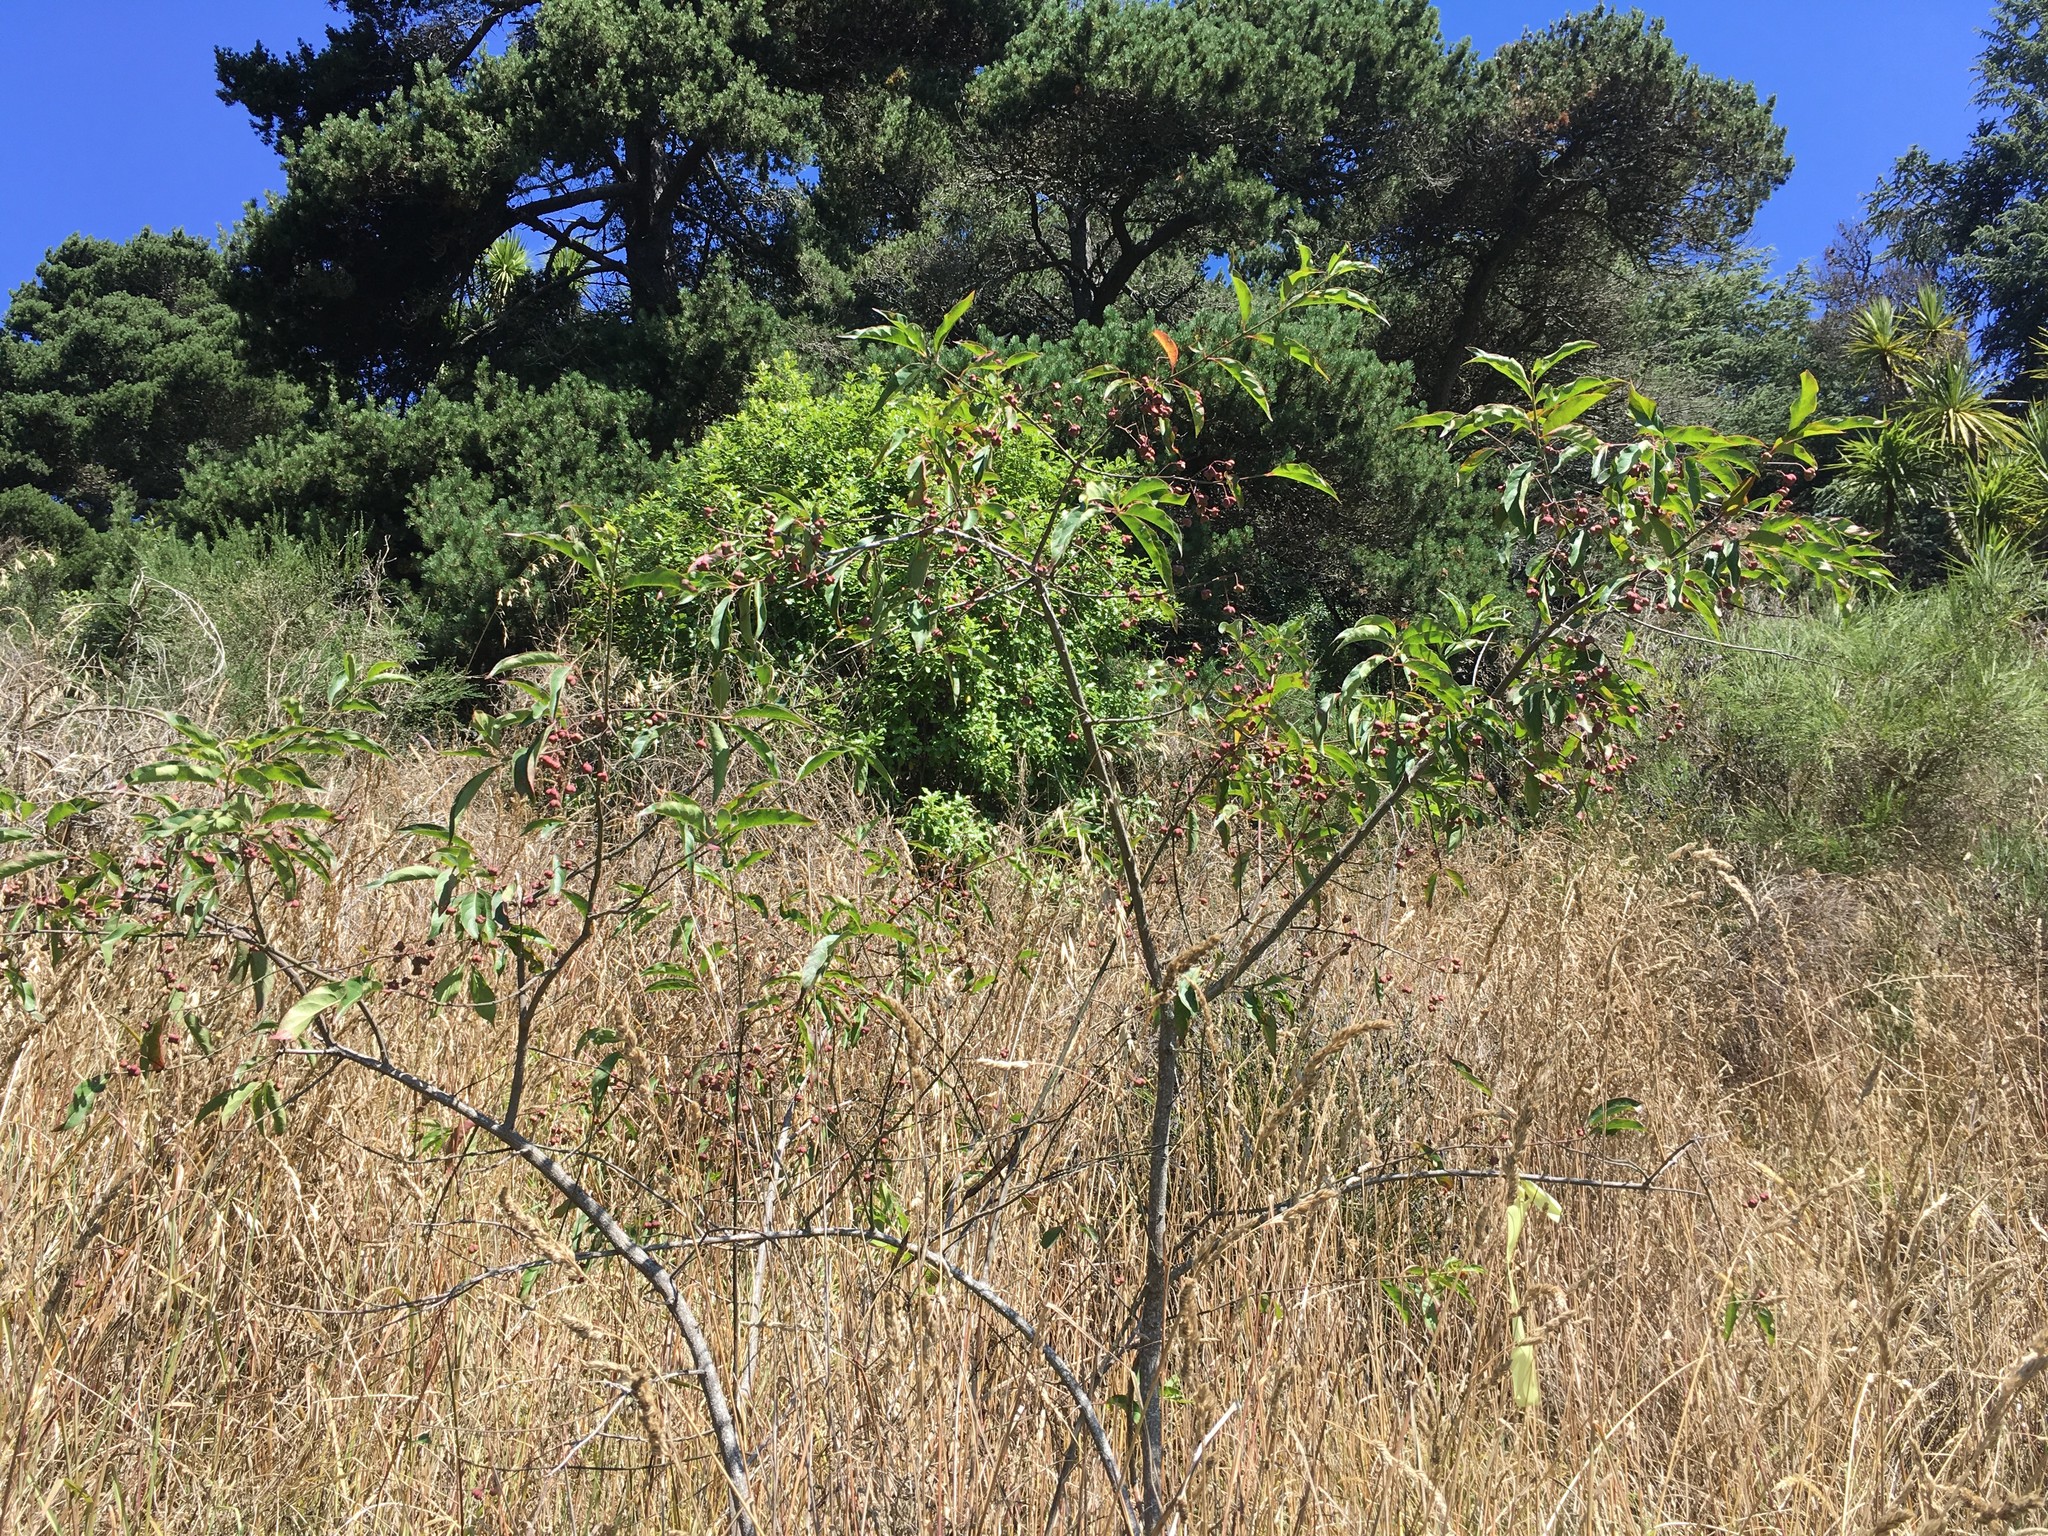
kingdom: Plantae
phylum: Tracheophyta
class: Magnoliopsida
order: Celastrales
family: Celastraceae
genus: Euonymus
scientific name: Euonymus europaeus
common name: Spindle
